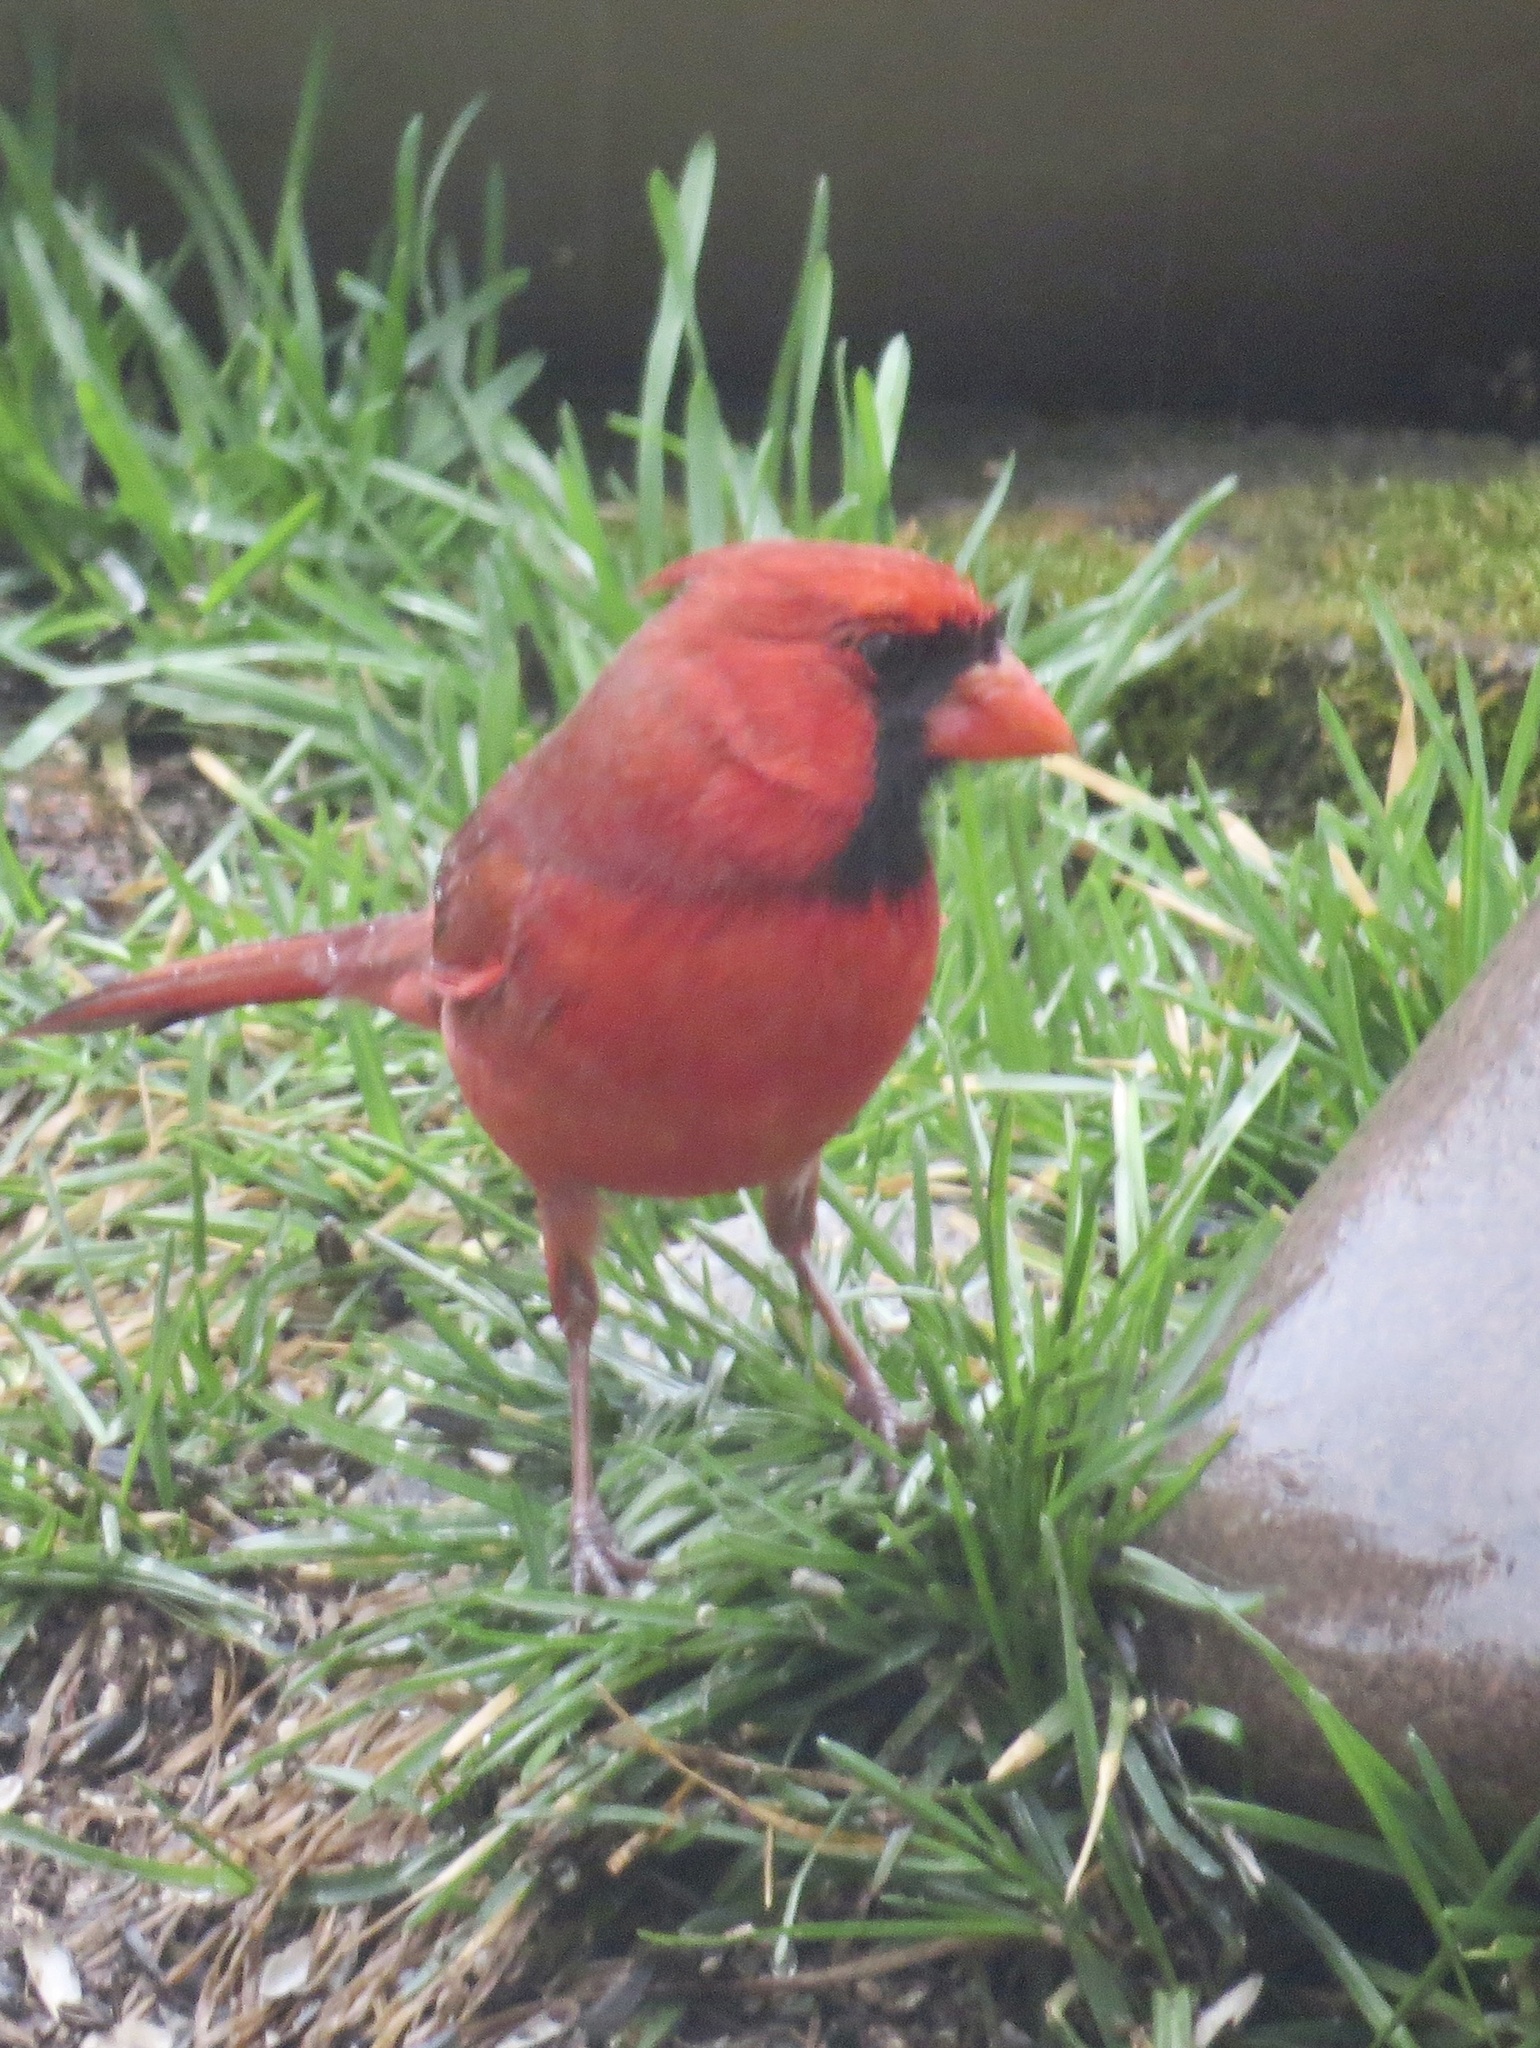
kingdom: Animalia
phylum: Chordata
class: Aves
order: Passeriformes
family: Cardinalidae
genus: Cardinalis
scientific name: Cardinalis cardinalis
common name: Northern cardinal
